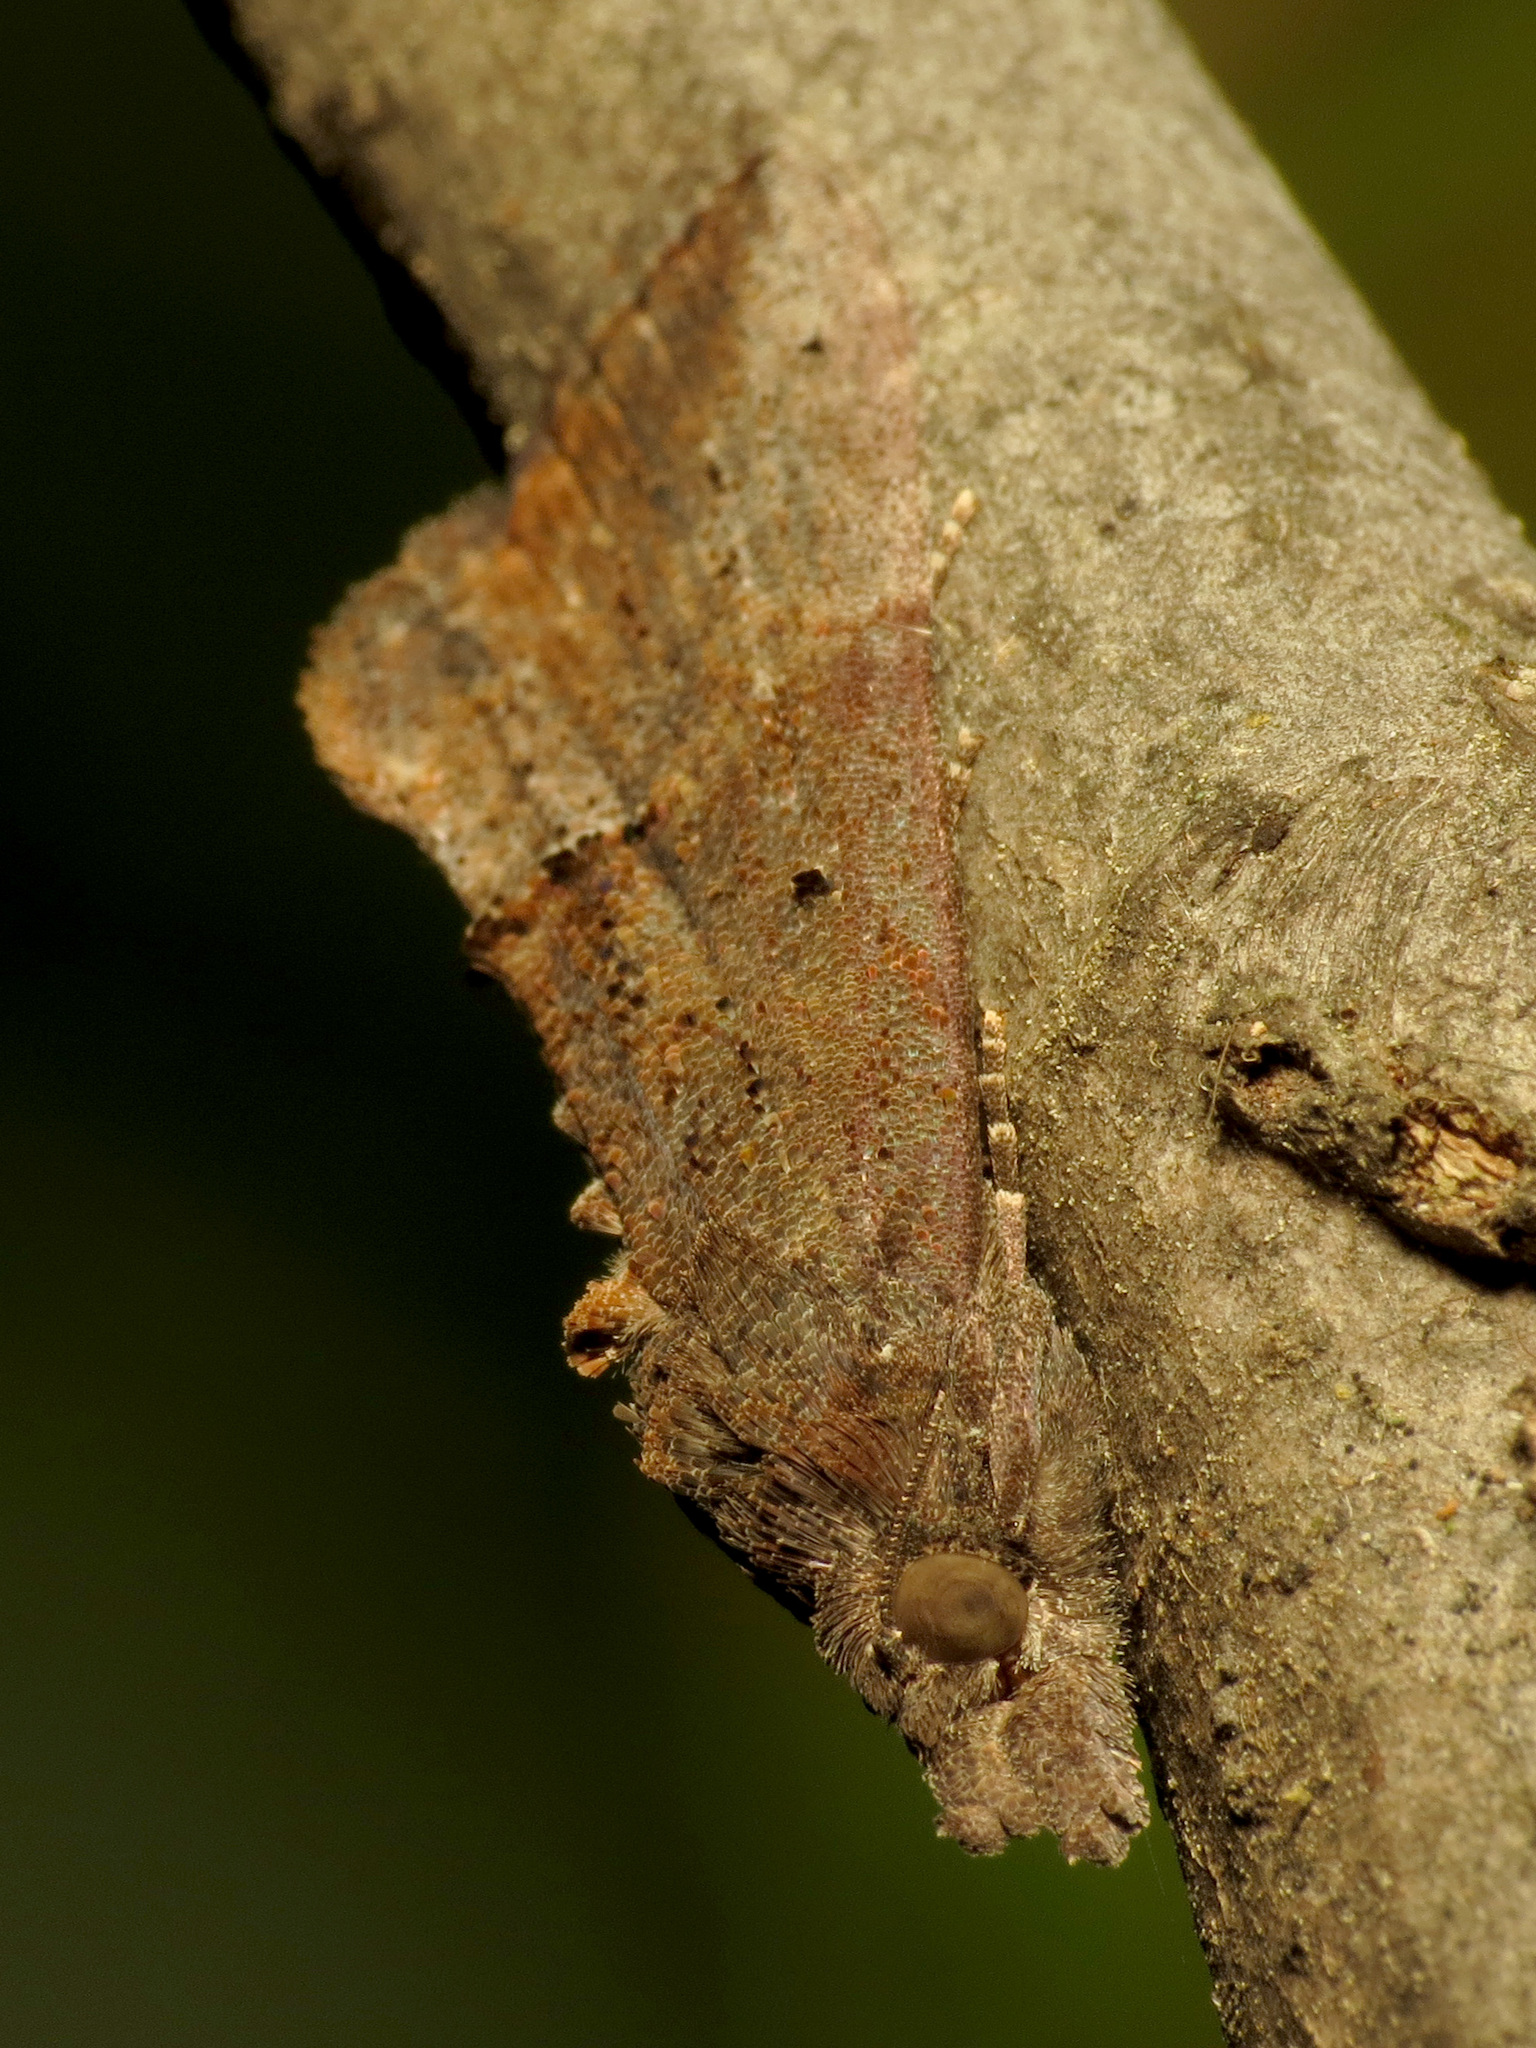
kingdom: Animalia
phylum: Arthropoda
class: Insecta
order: Lepidoptera
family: Erebidae
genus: Hypena
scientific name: Hypena scabra
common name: Green cloverworm
